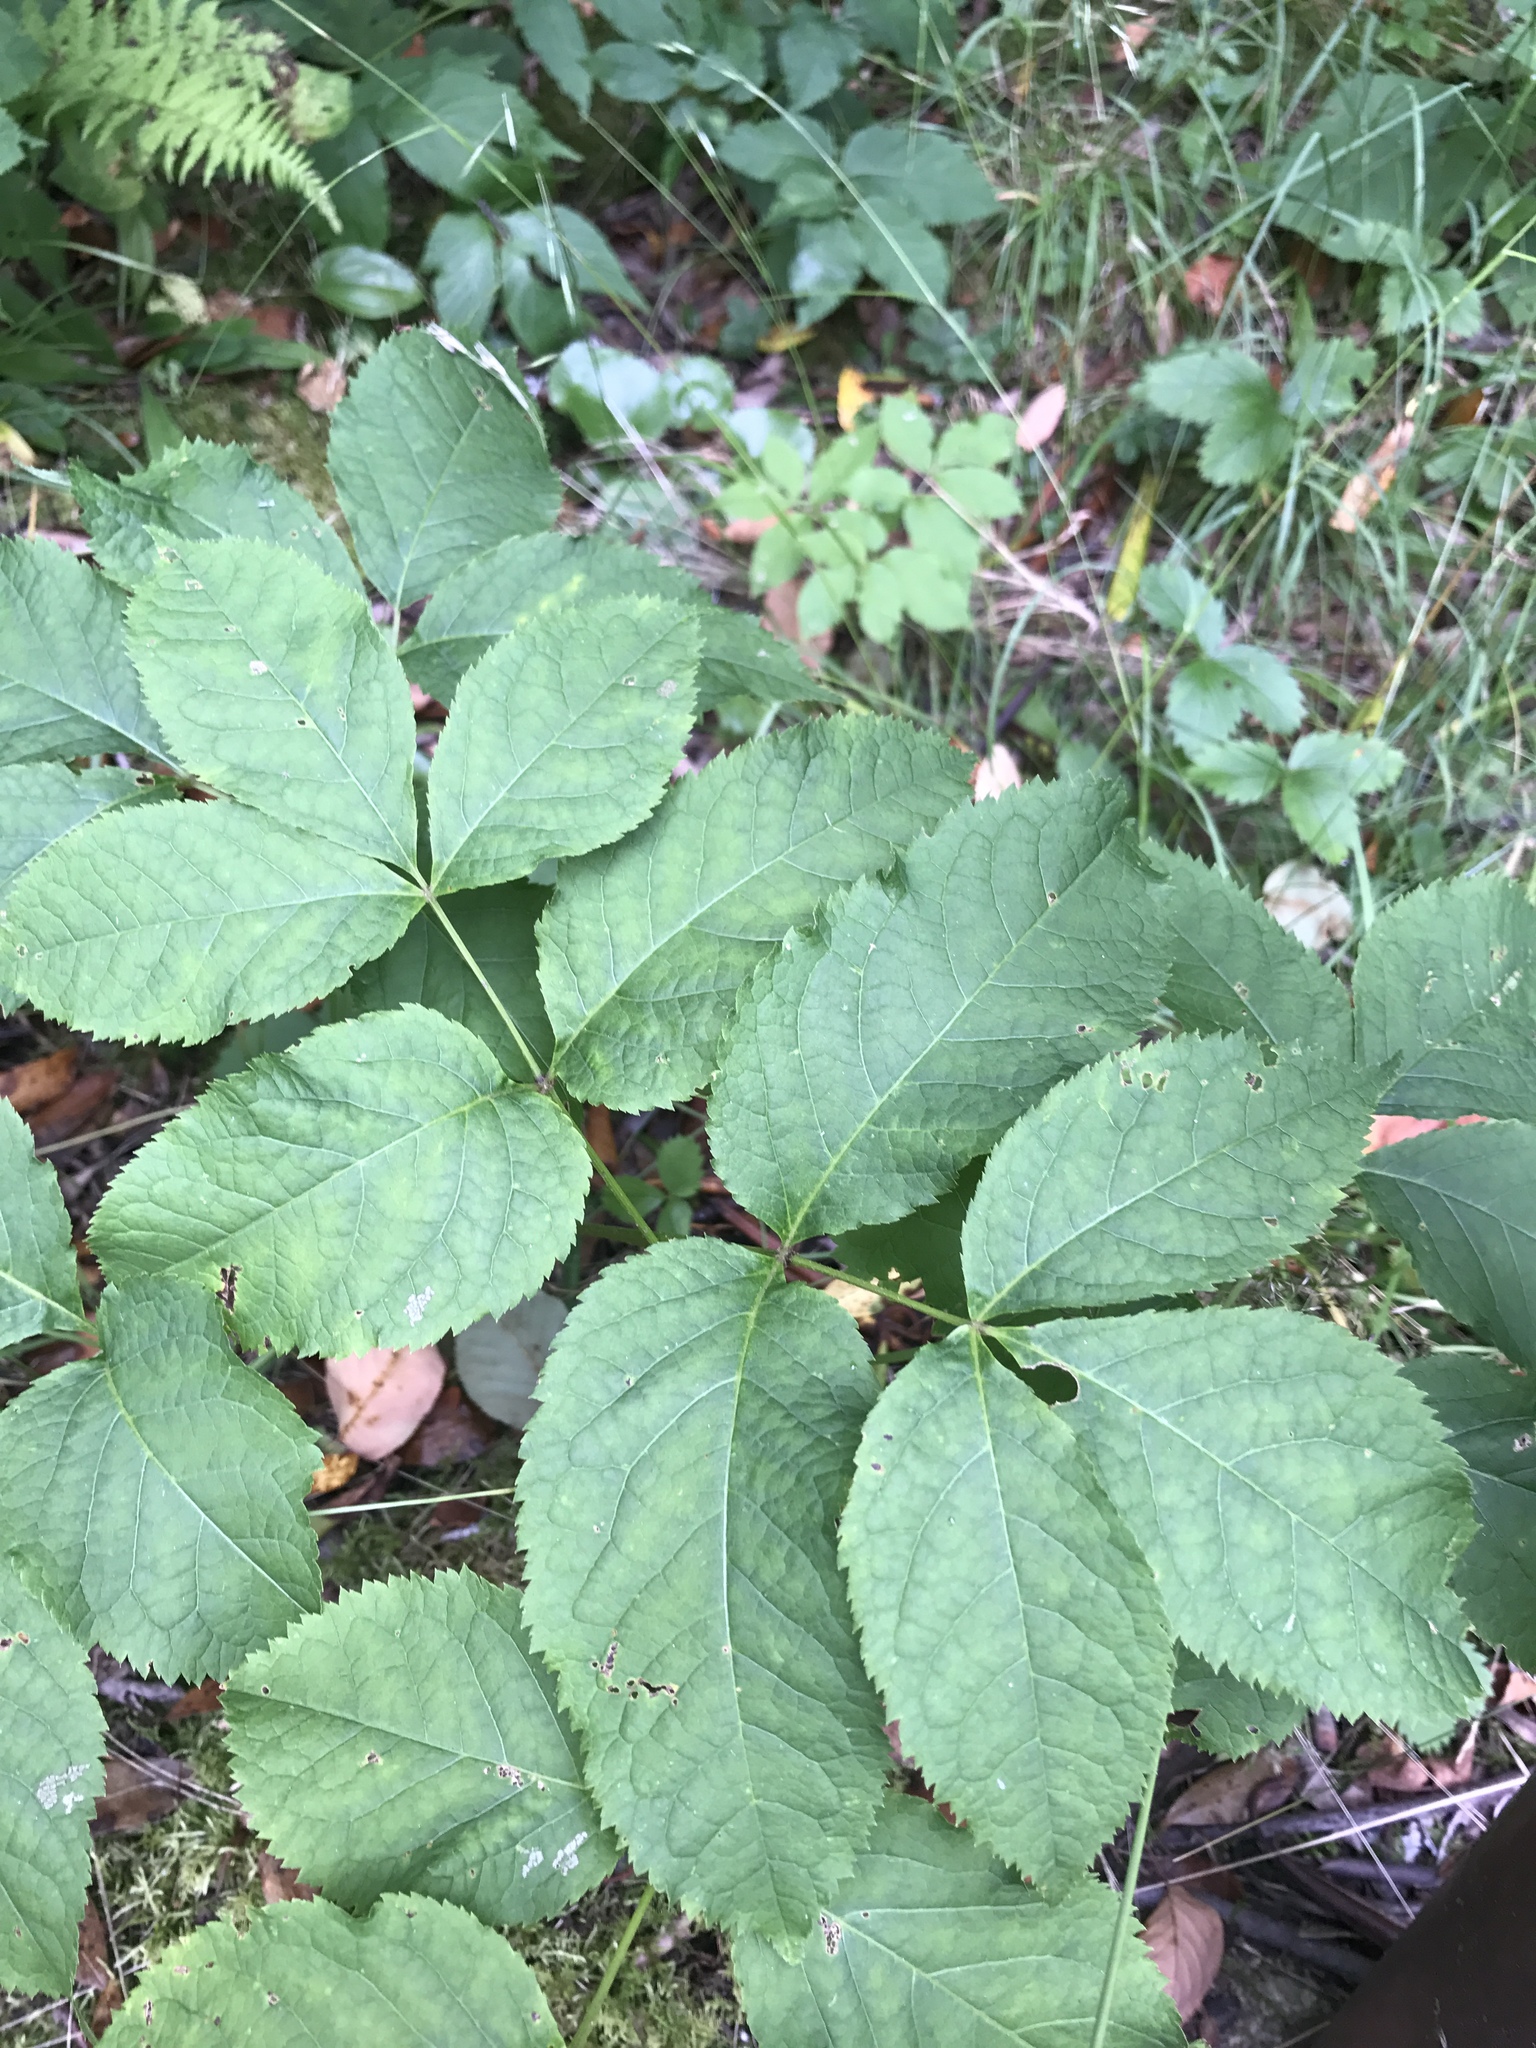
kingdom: Plantae
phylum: Tracheophyta
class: Magnoliopsida
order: Apiales
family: Araliaceae
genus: Aralia
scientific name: Aralia nudicaulis
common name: Wild sarsaparilla
